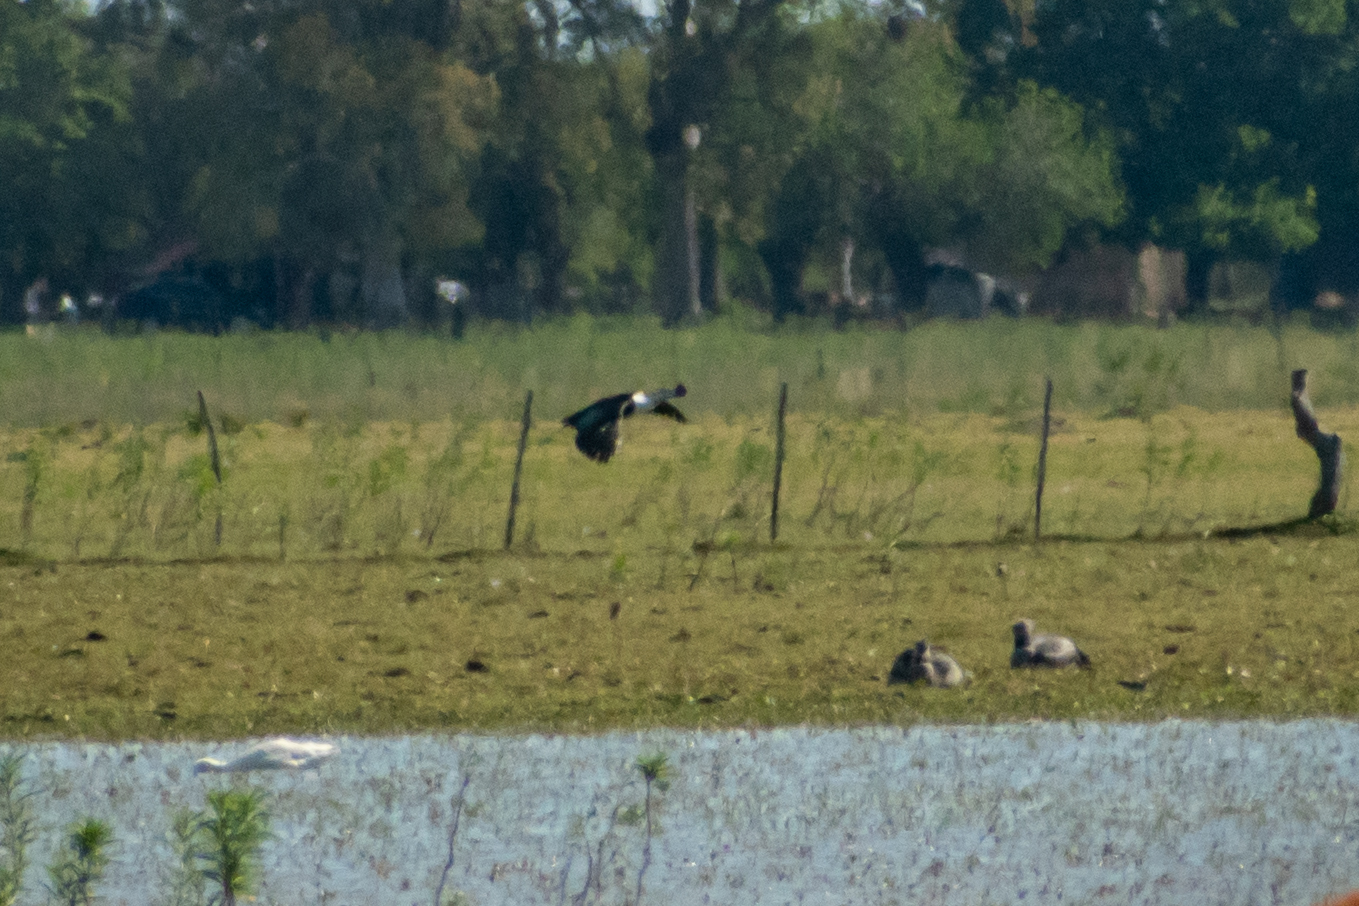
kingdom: Animalia
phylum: Chordata
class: Aves
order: Anseriformes
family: Anatidae
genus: Sarkidiornis
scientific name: Sarkidiornis sylvicola
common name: Comb duck
